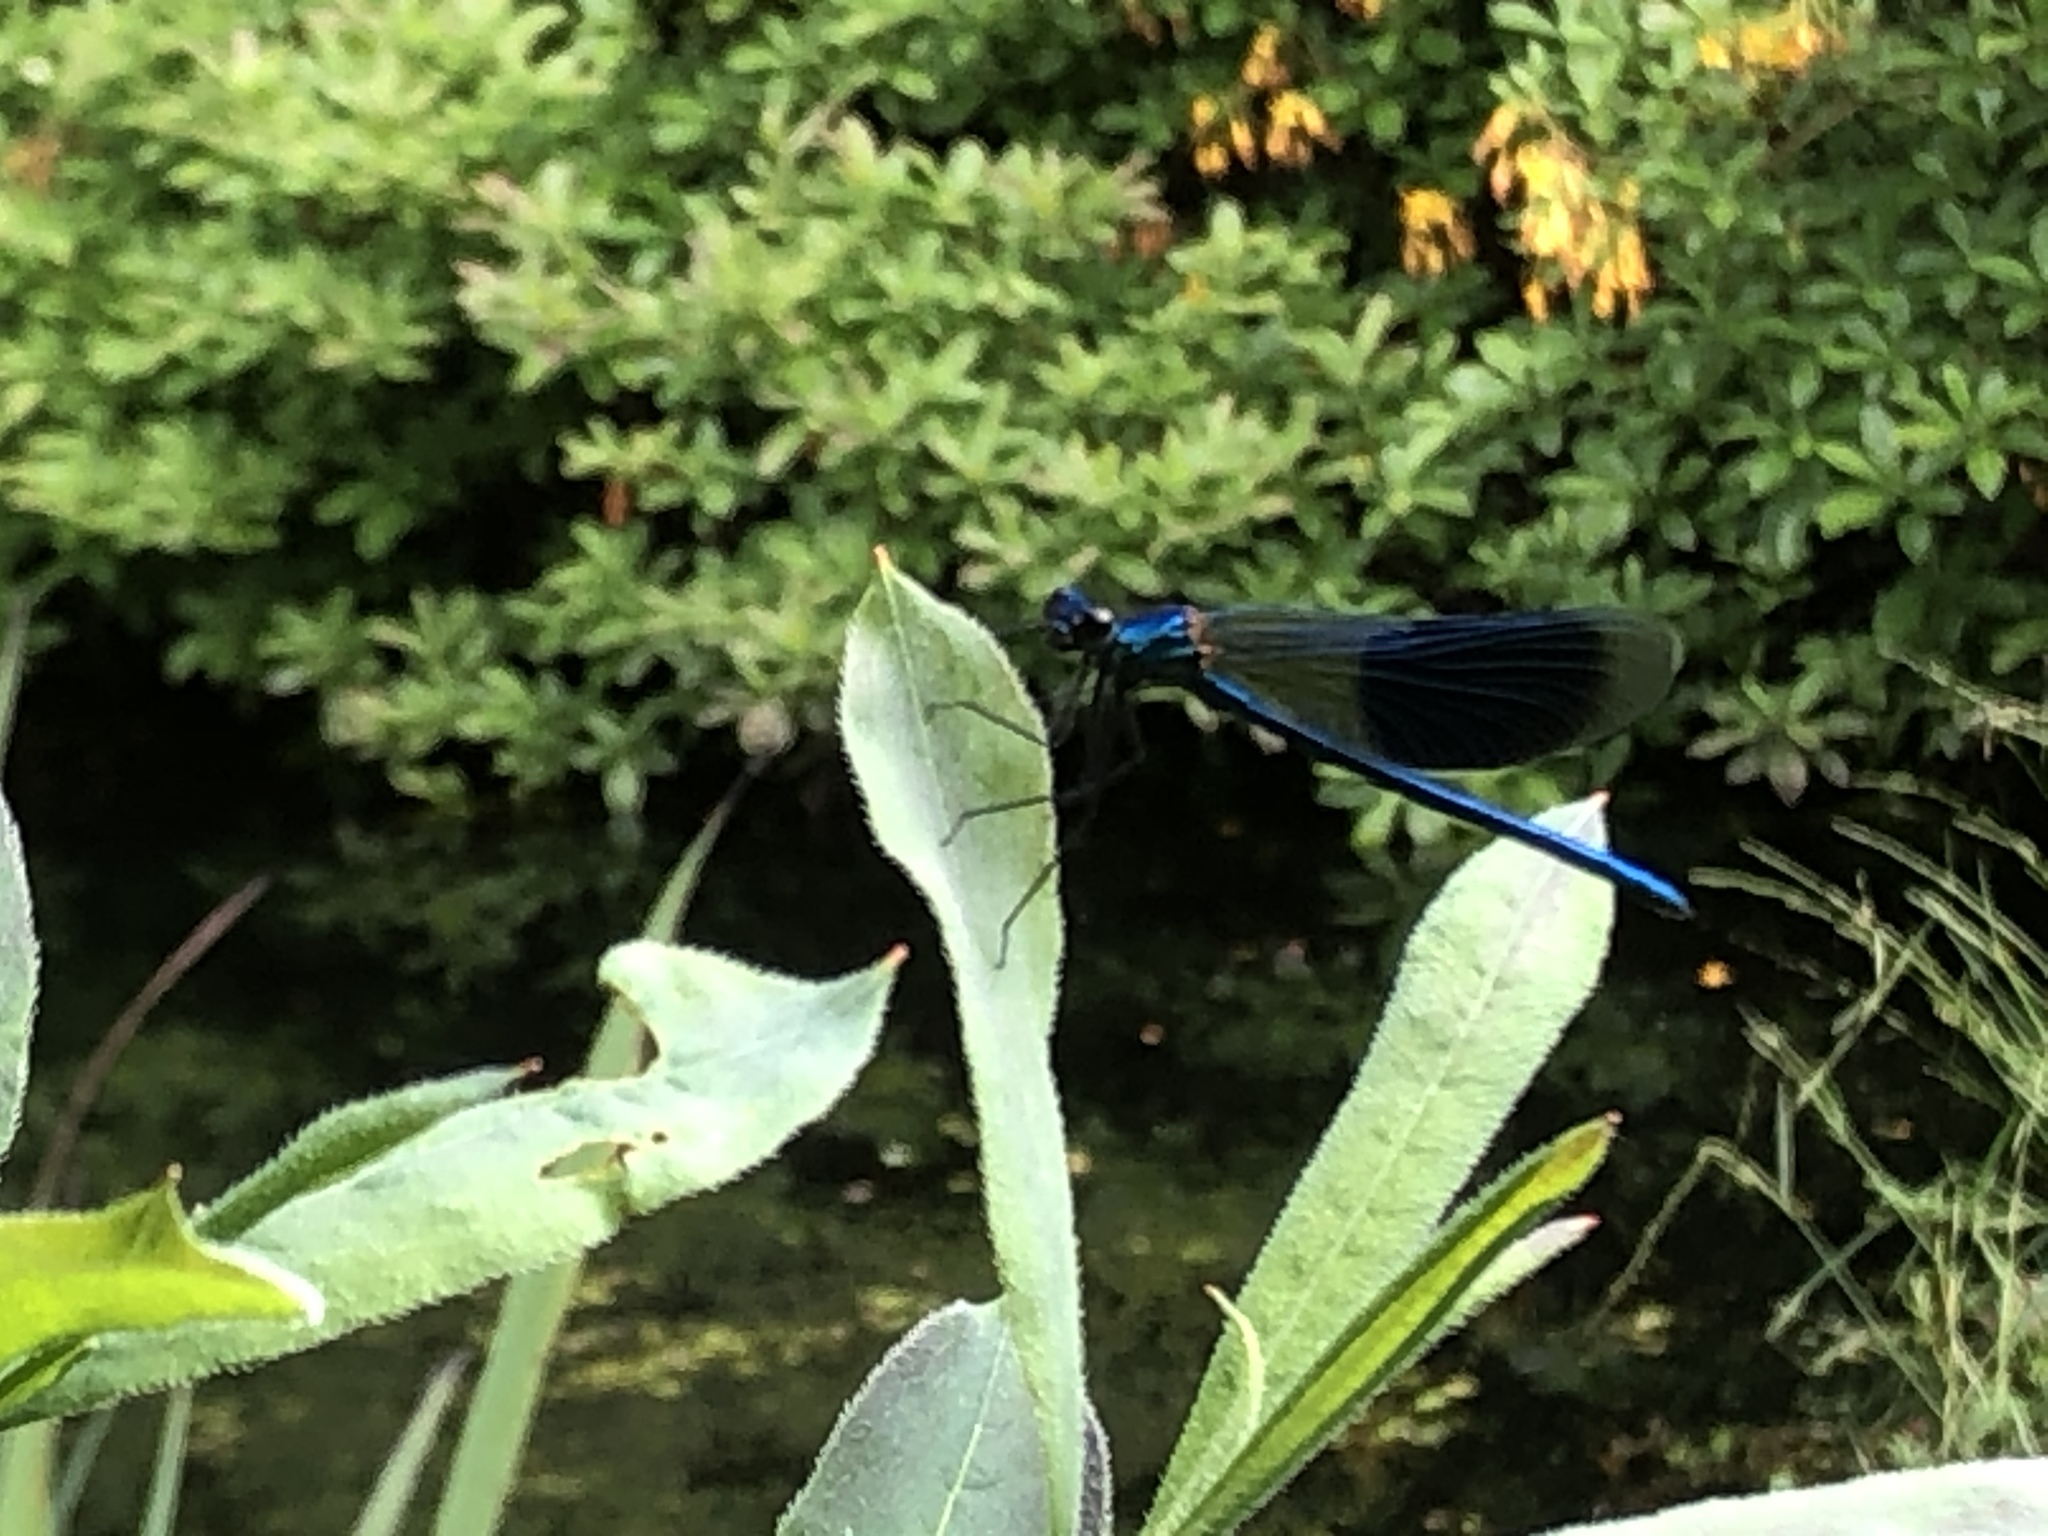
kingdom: Animalia
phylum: Arthropoda
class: Insecta
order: Odonata
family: Calopterygidae
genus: Calopteryx
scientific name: Calopteryx splendens
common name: Banded demoiselle
